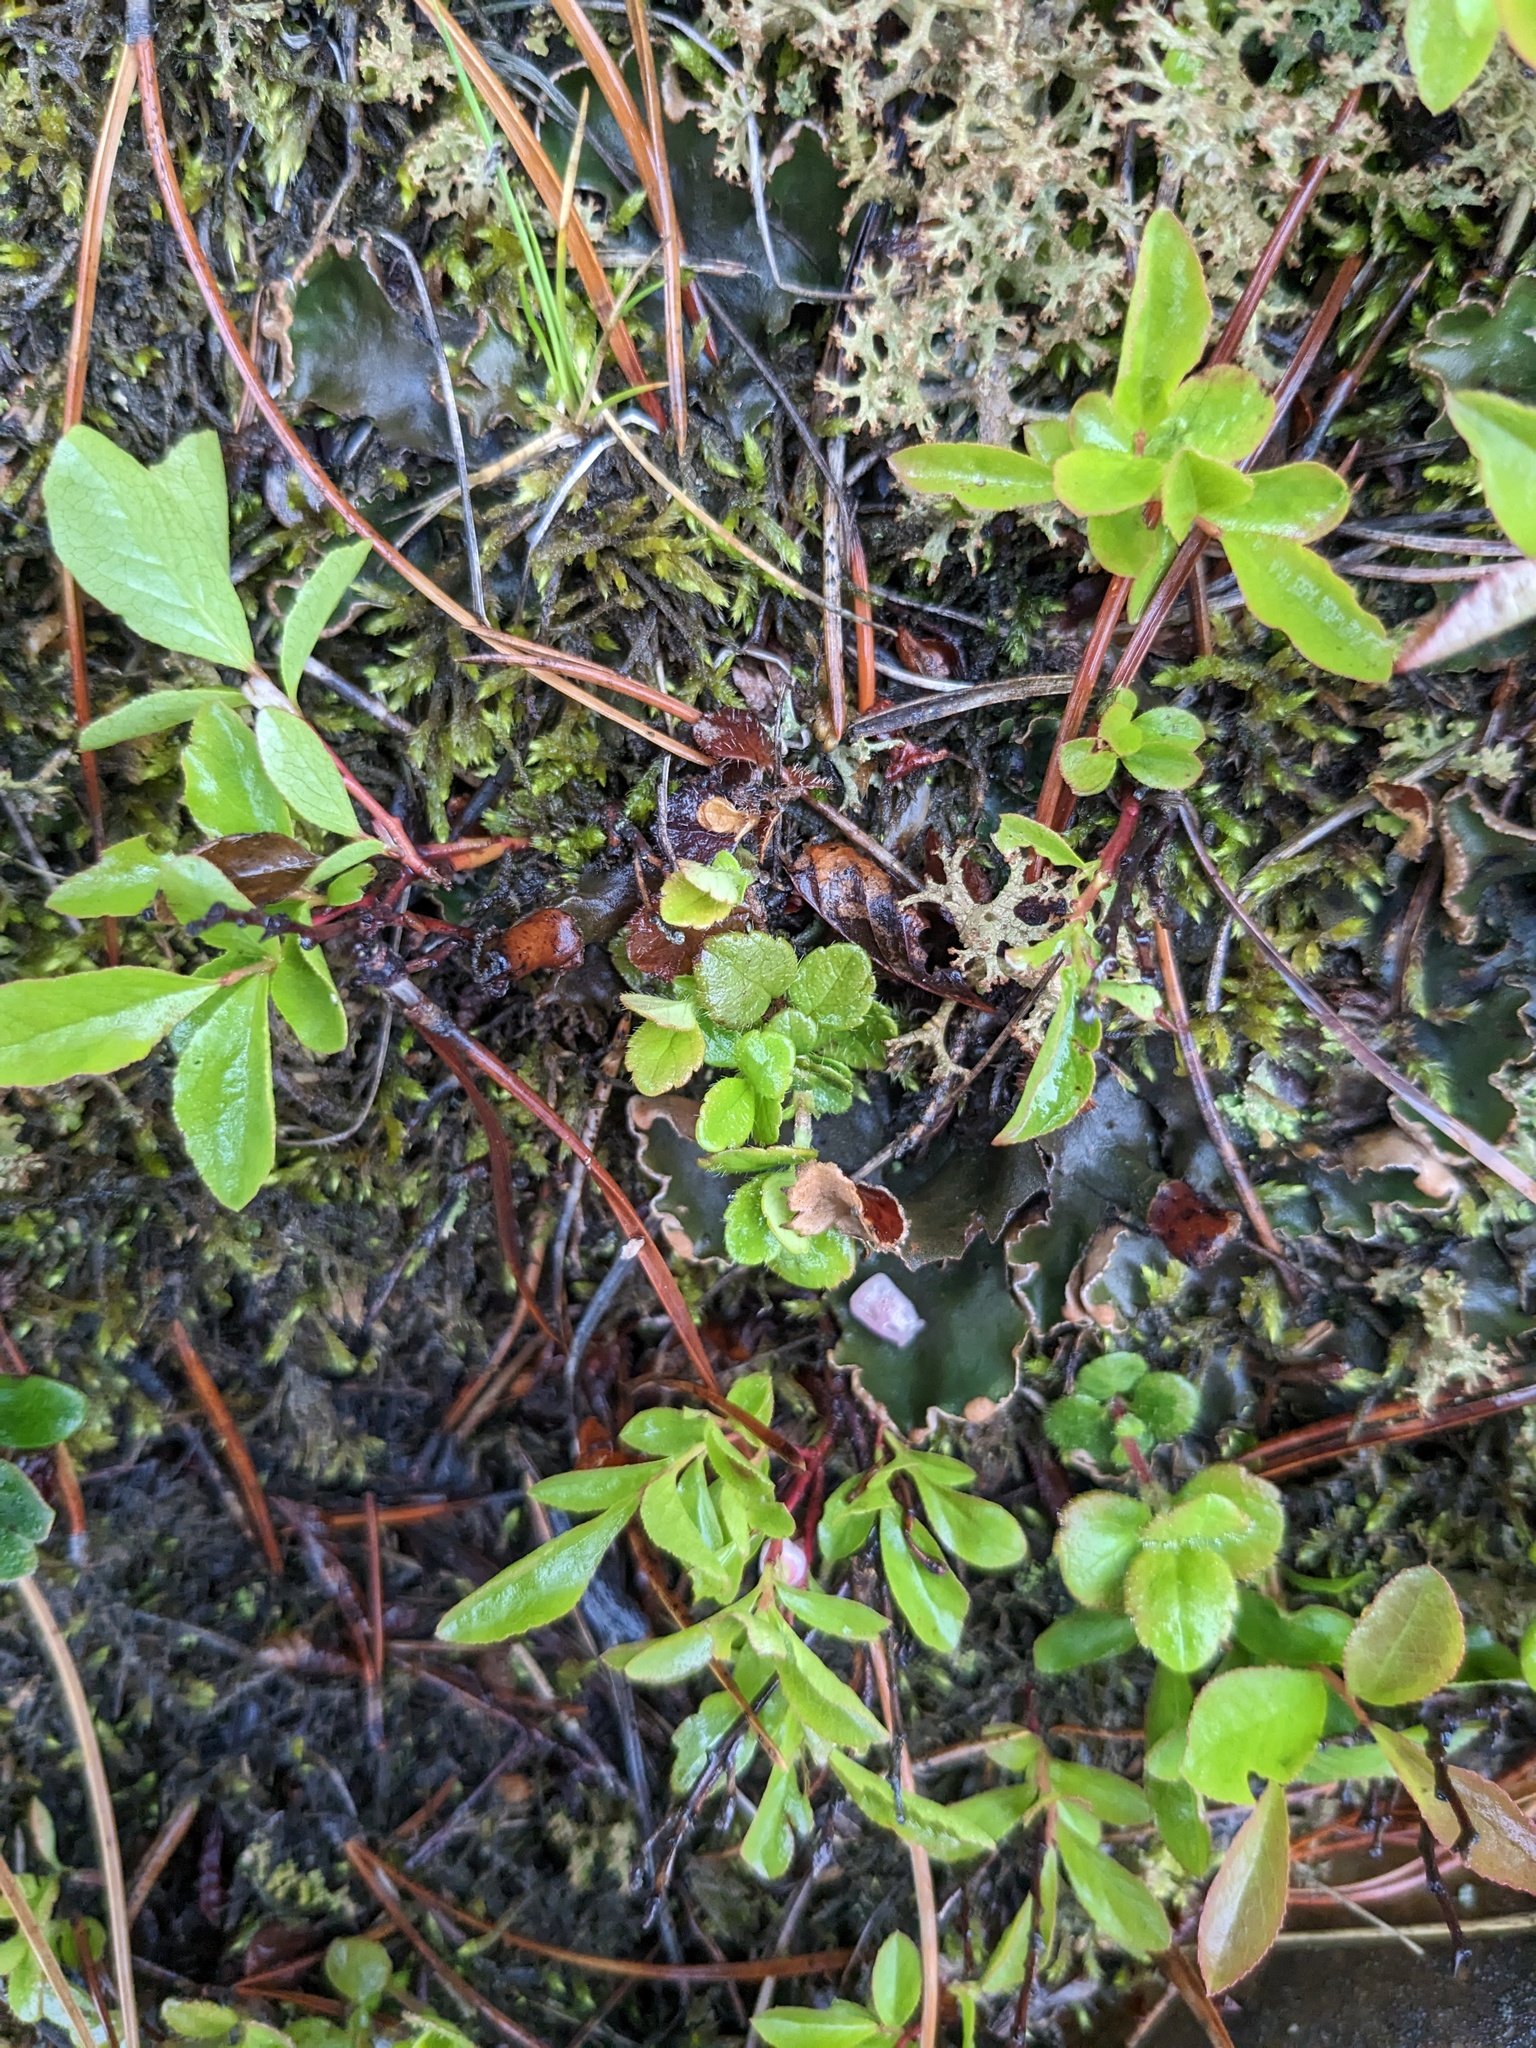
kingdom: Plantae
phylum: Tracheophyta
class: Magnoliopsida
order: Dipsacales
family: Caprifoliaceae
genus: Linnaea
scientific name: Linnaea borealis
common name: Twinflower
